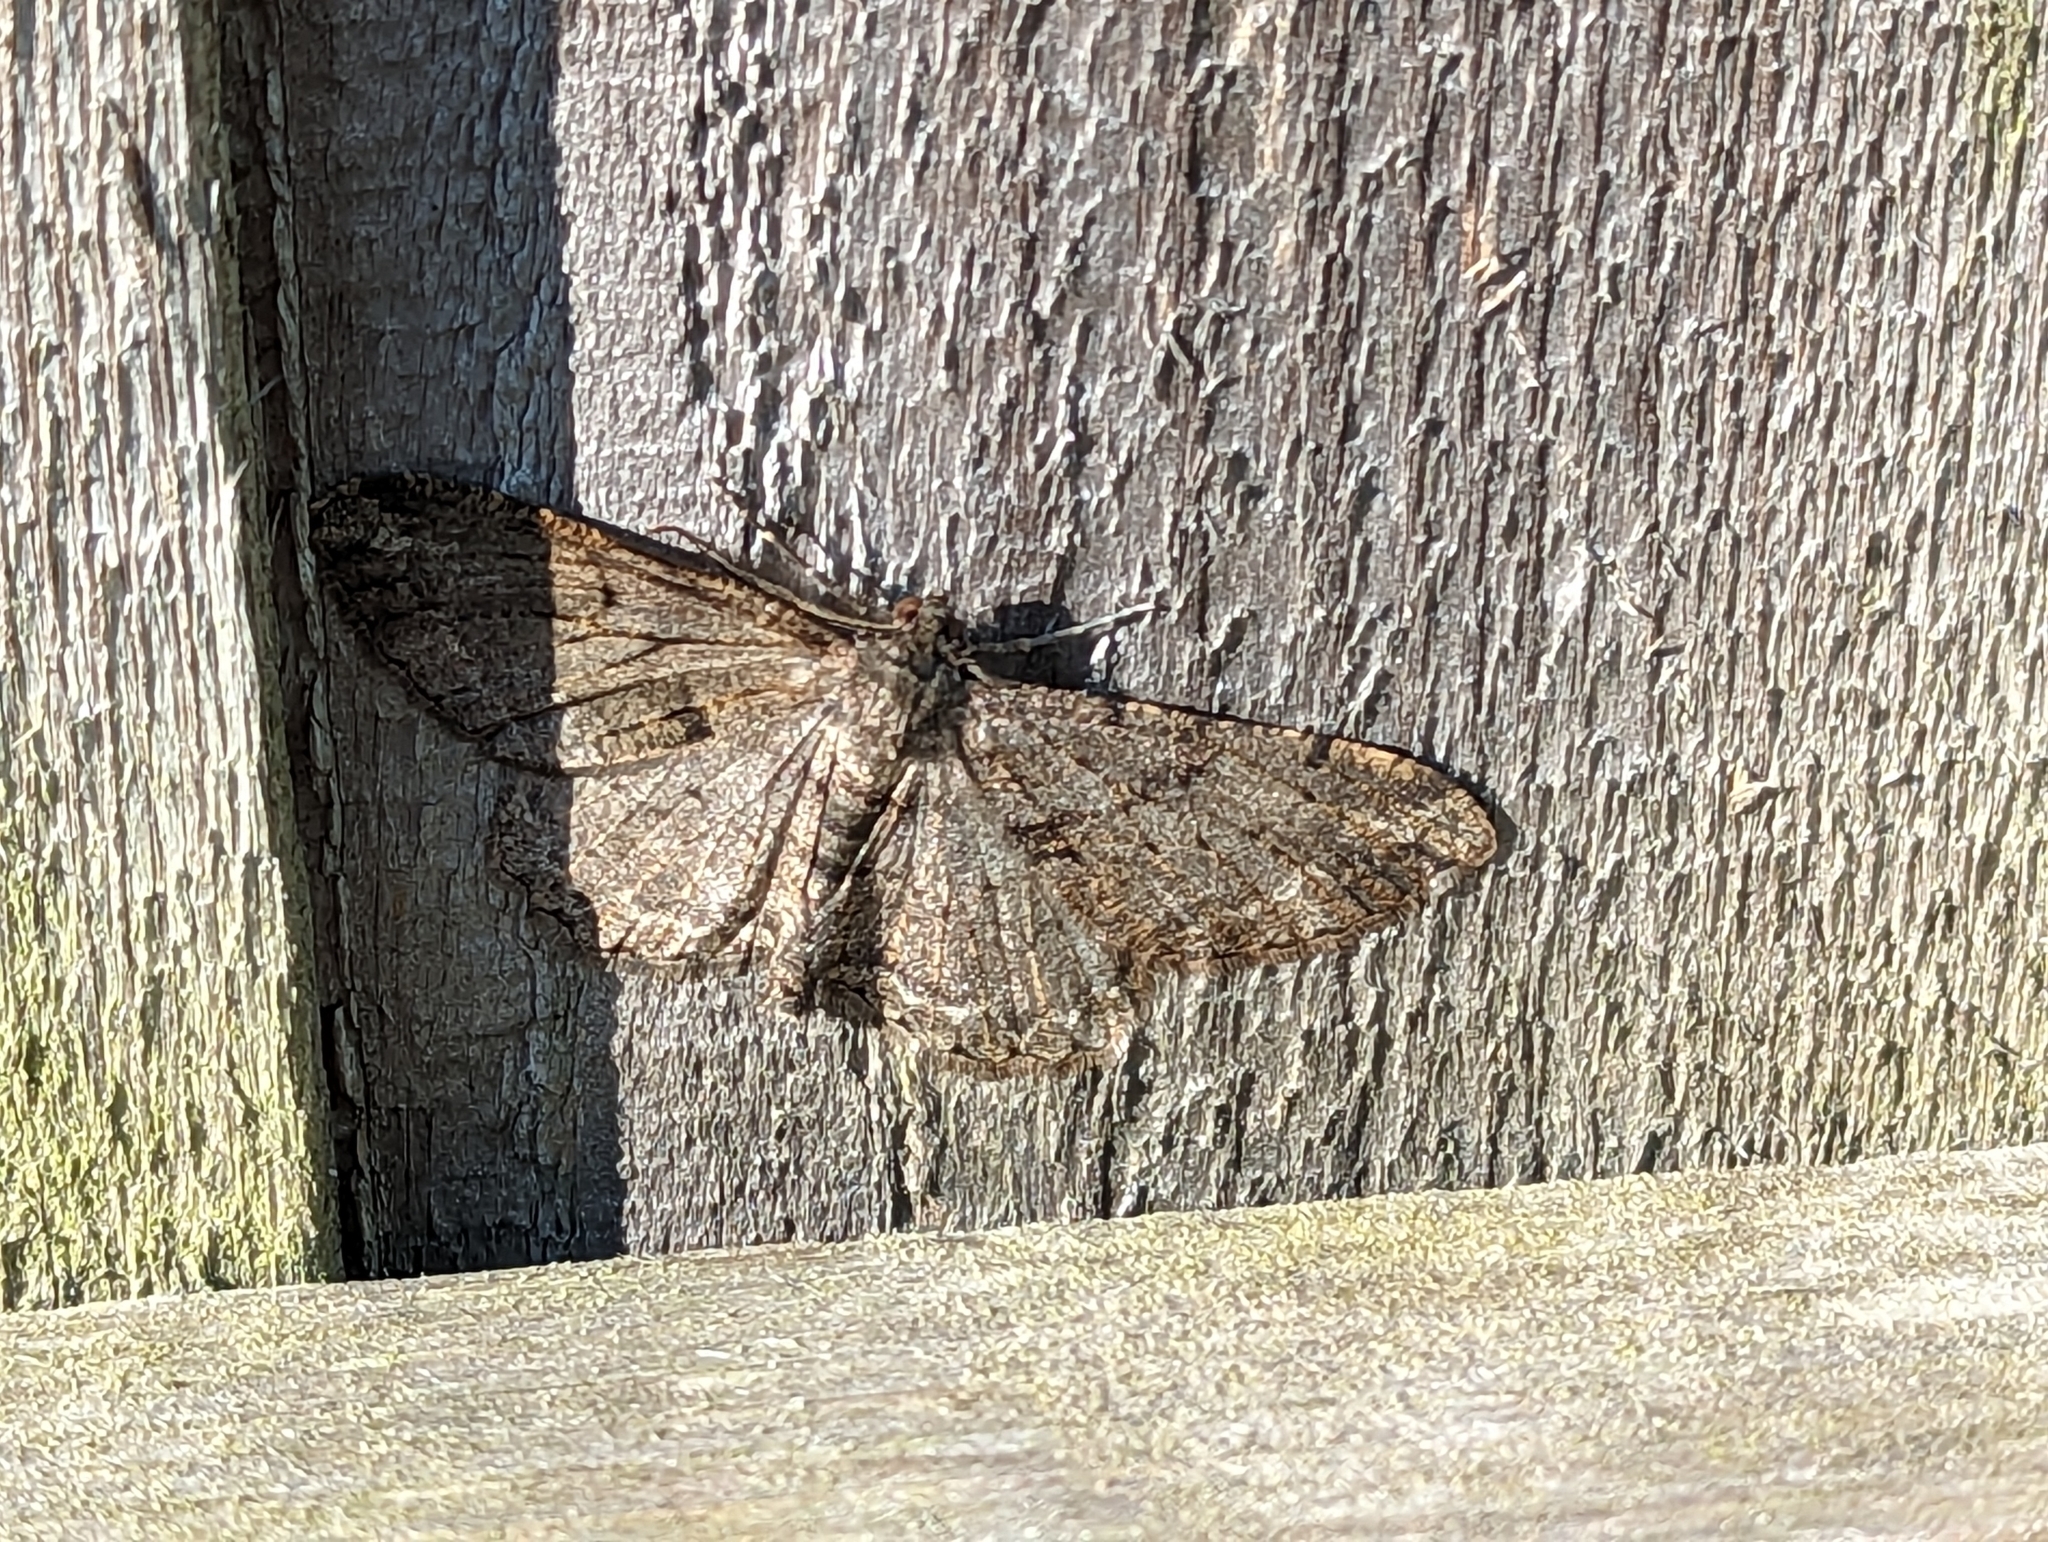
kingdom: Animalia
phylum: Arthropoda
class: Insecta
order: Lepidoptera
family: Geometridae
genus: Peribatodes
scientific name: Peribatodes rhomboidaria
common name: Willow beauty
